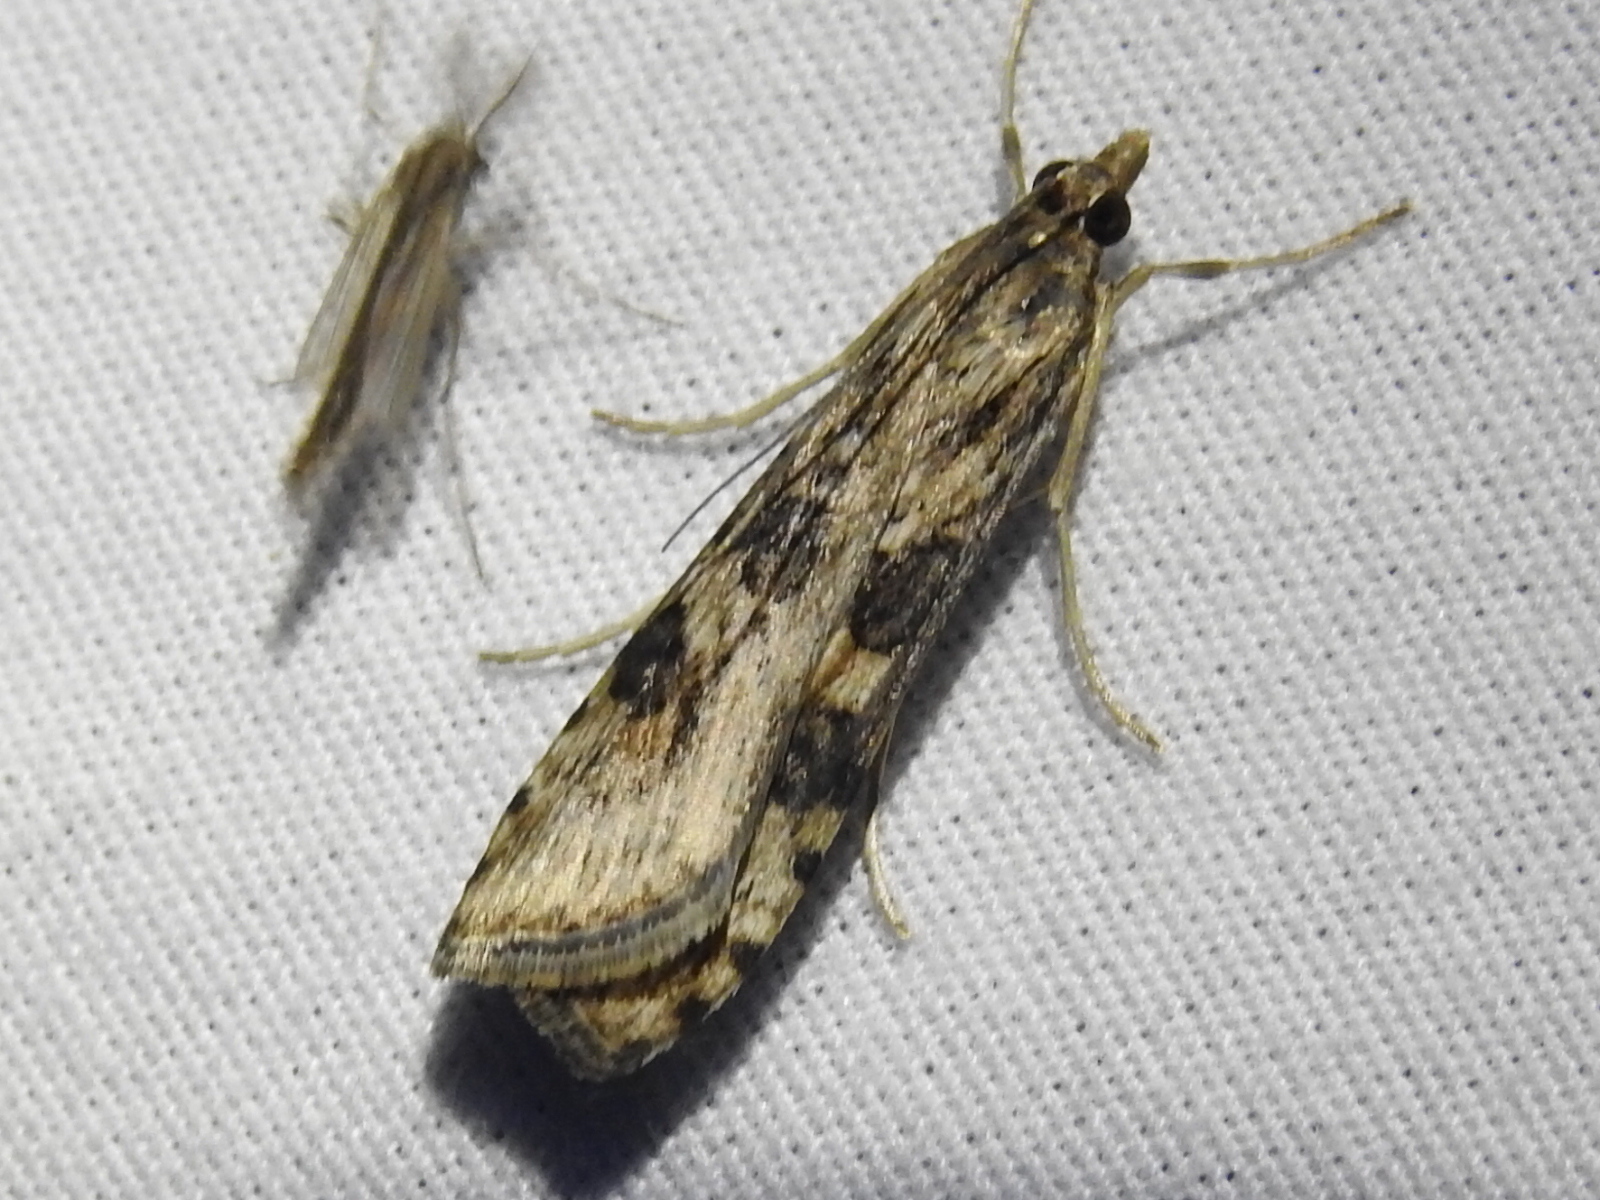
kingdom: Animalia
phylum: Arthropoda
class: Insecta
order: Lepidoptera
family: Crambidae
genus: Nomophila
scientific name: Nomophila nearctica
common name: American rush veneer
